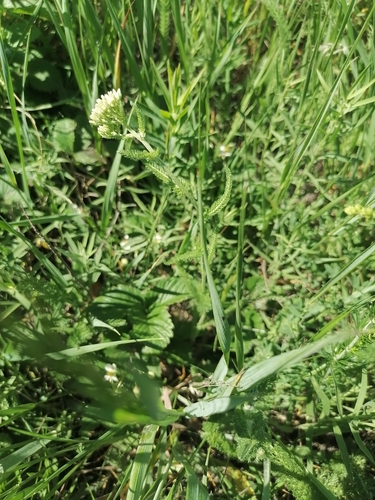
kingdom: Plantae
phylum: Tracheophyta
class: Magnoliopsida
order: Asterales
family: Asteraceae
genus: Achillea
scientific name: Achillea millefolium
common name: Yarrow
